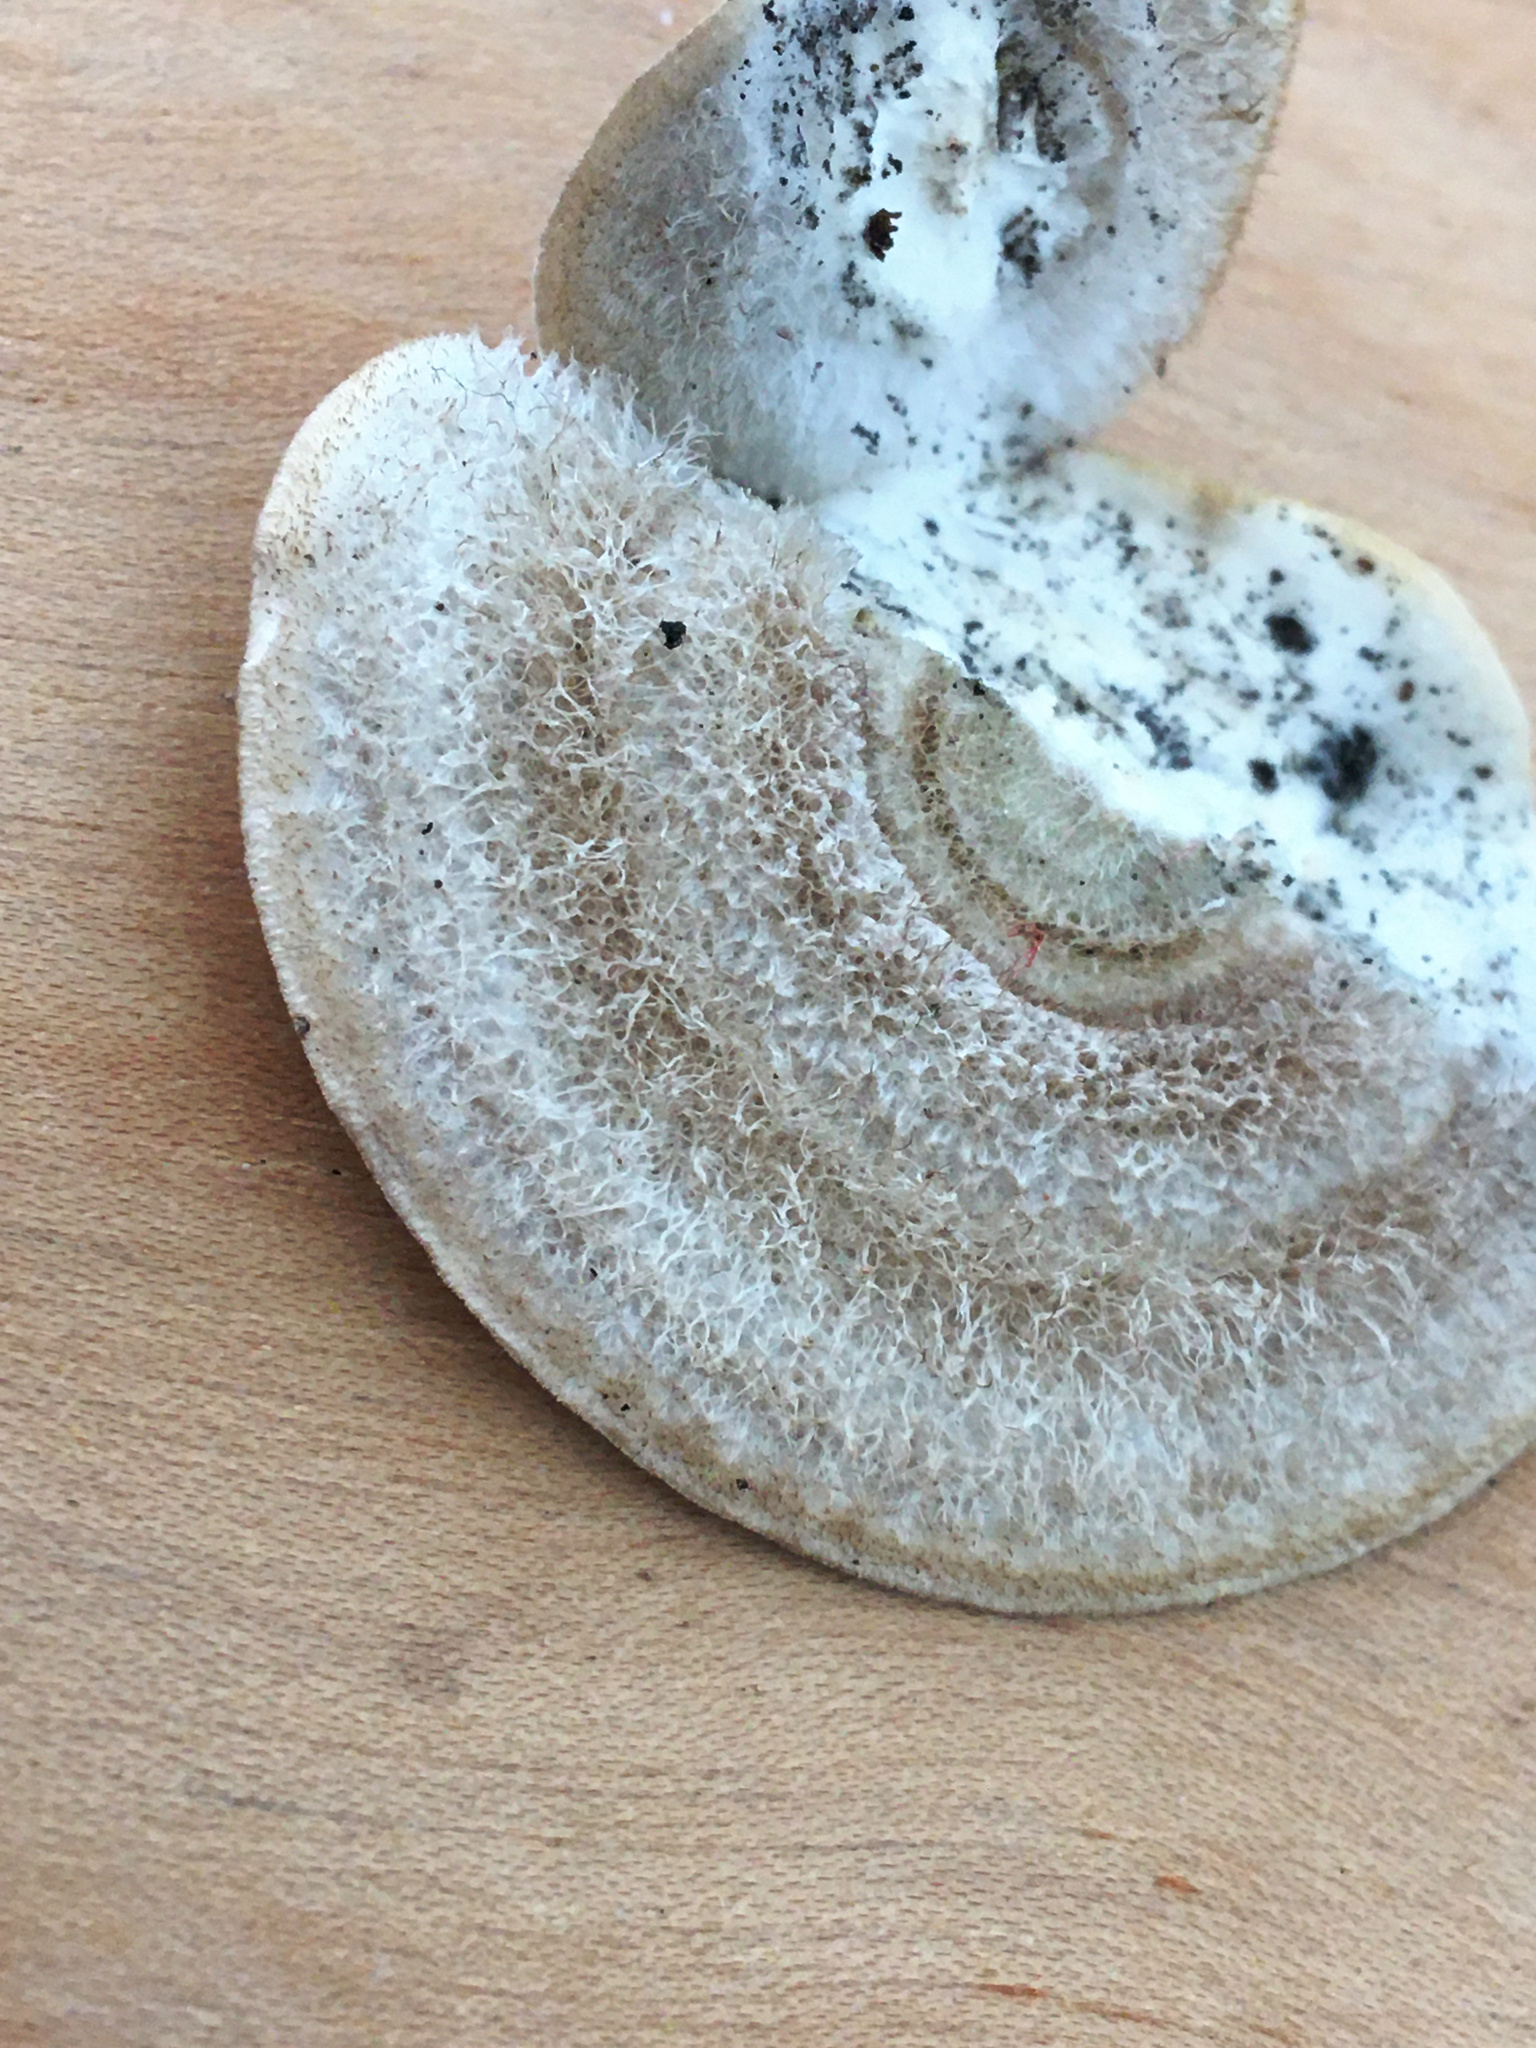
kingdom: Fungi
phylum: Basidiomycota
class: Agaricomycetes
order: Polyporales
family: Polyporaceae
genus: Trametes
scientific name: Trametes hirsuta
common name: Hairy bracket
